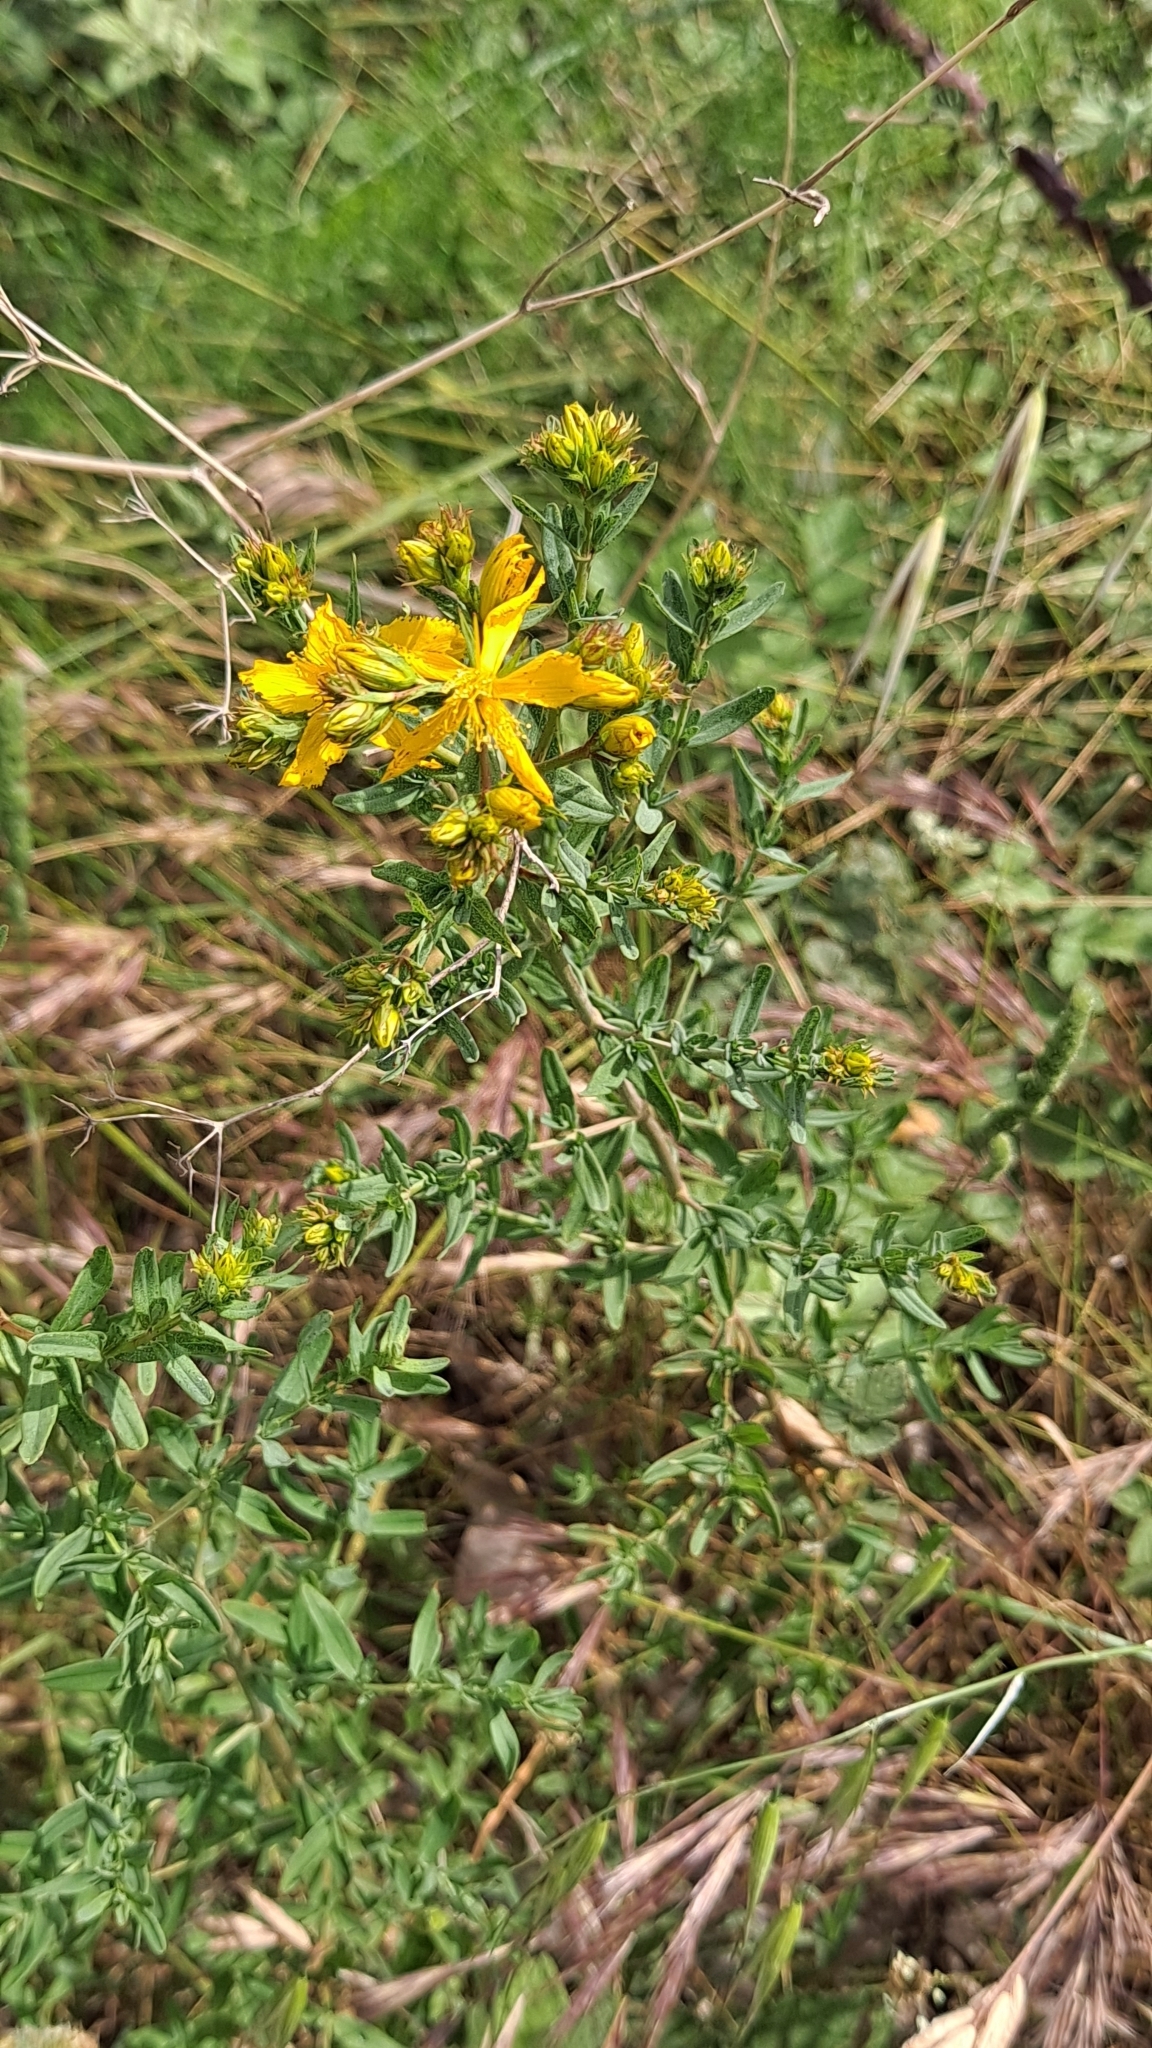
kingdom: Plantae
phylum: Tracheophyta
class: Magnoliopsida
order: Malpighiales
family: Hypericaceae
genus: Hypericum
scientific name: Hypericum perforatum
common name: Common st. johnswort
